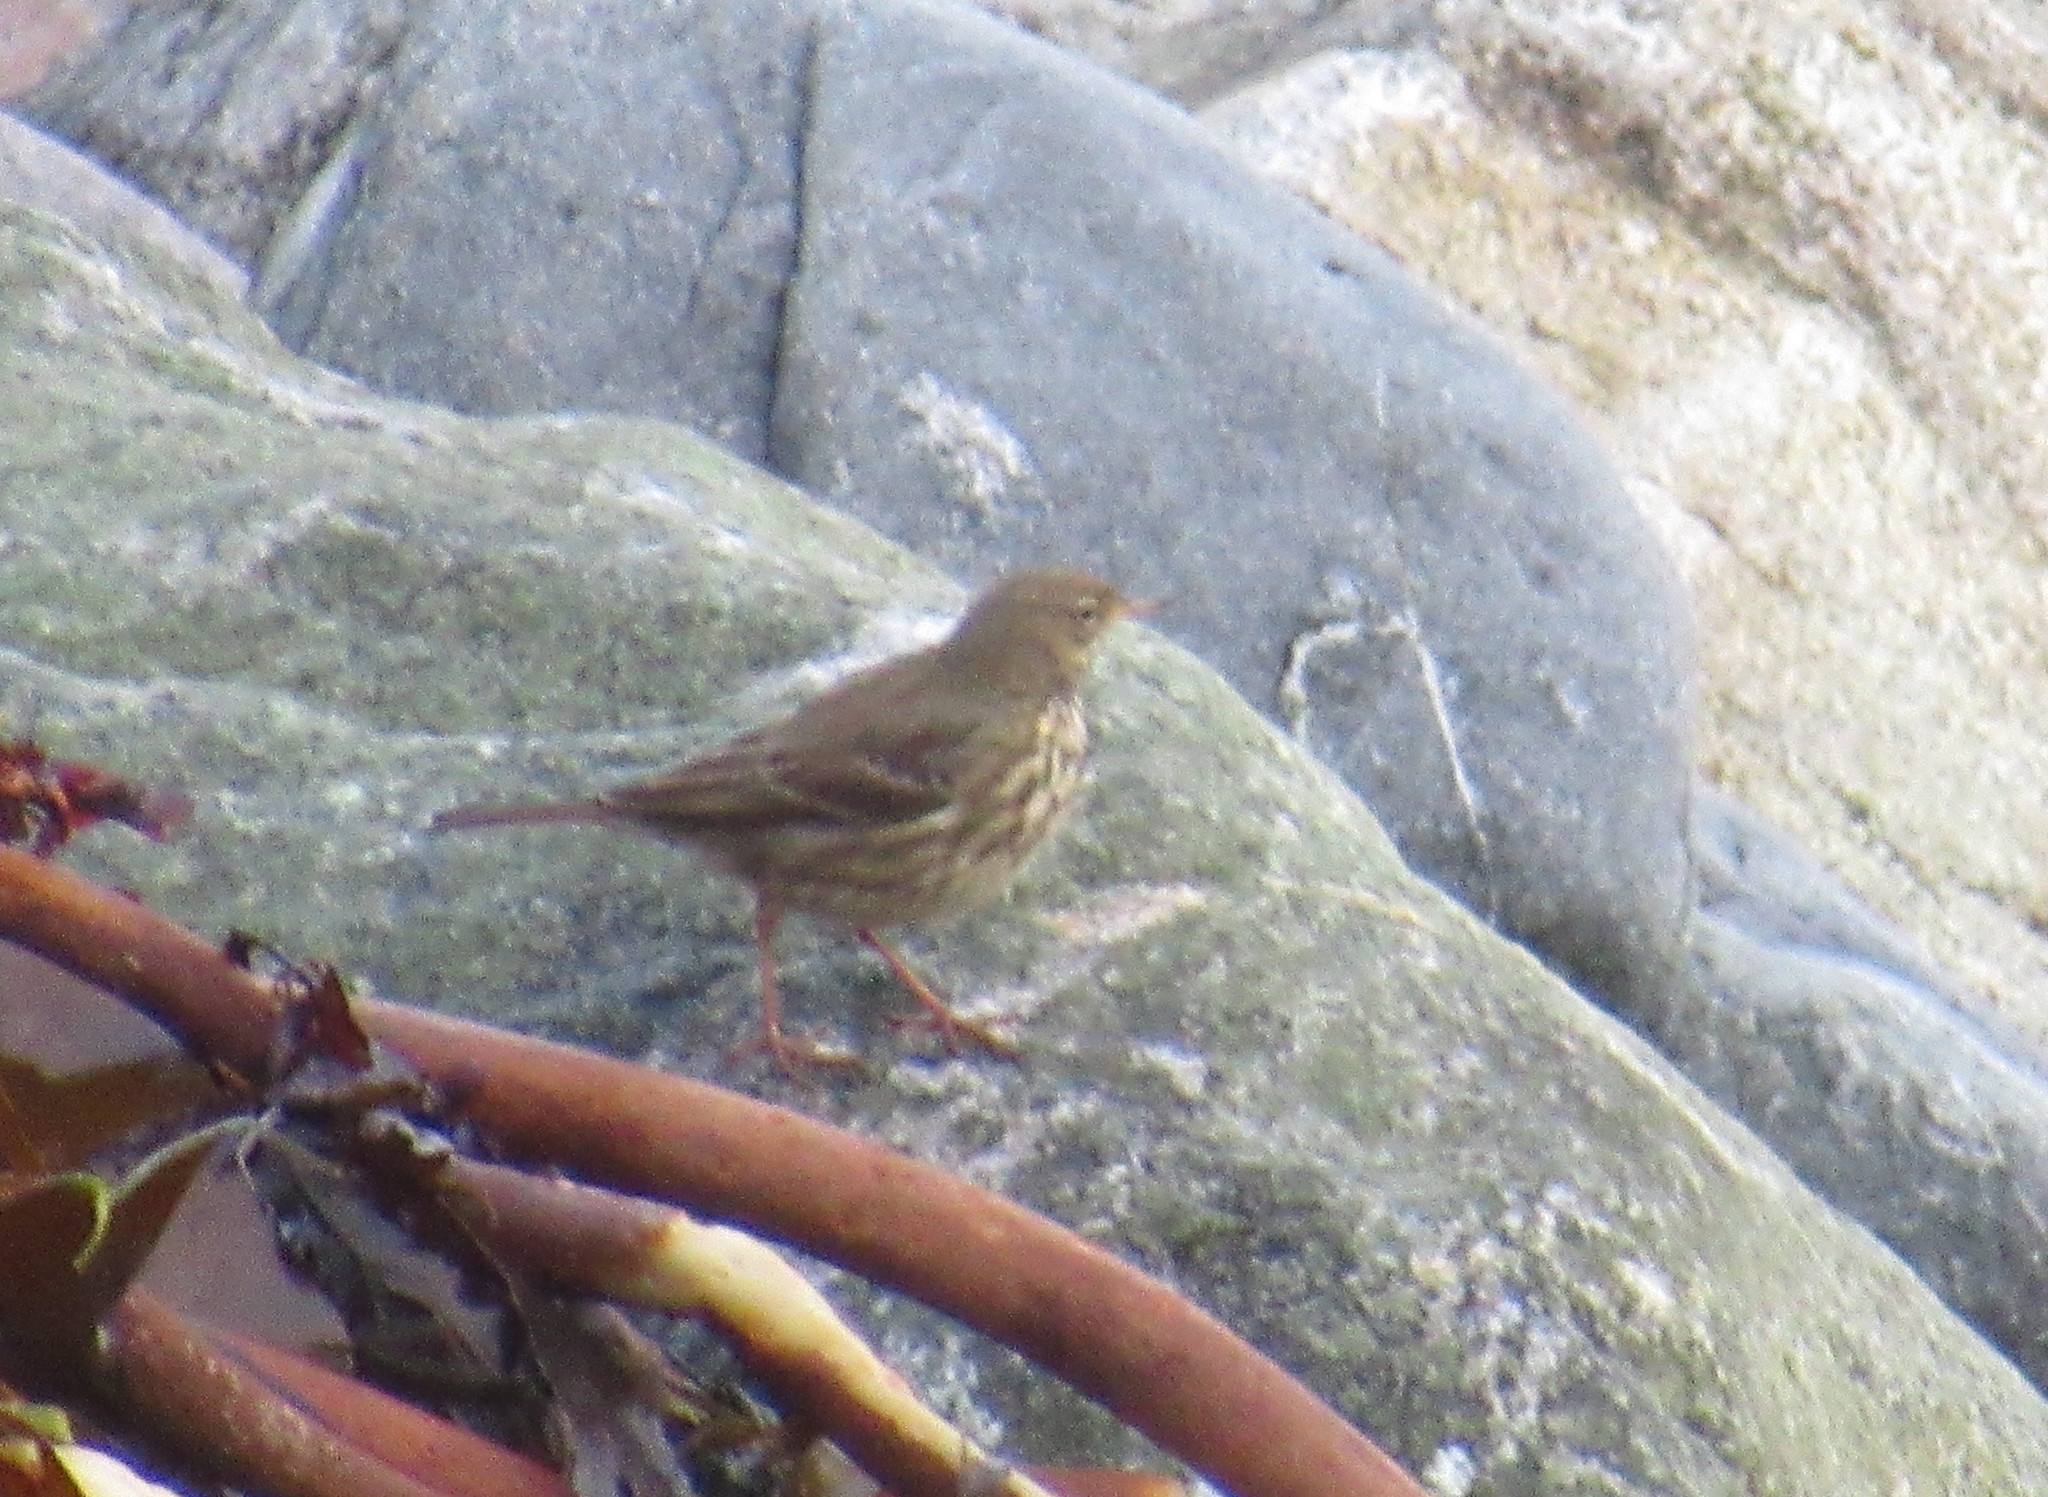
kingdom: Animalia
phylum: Chordata
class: Aves
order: Passeriformes
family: Motacillidae
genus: Anthus
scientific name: Anthus petrosus
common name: Eurasian rock pipit
